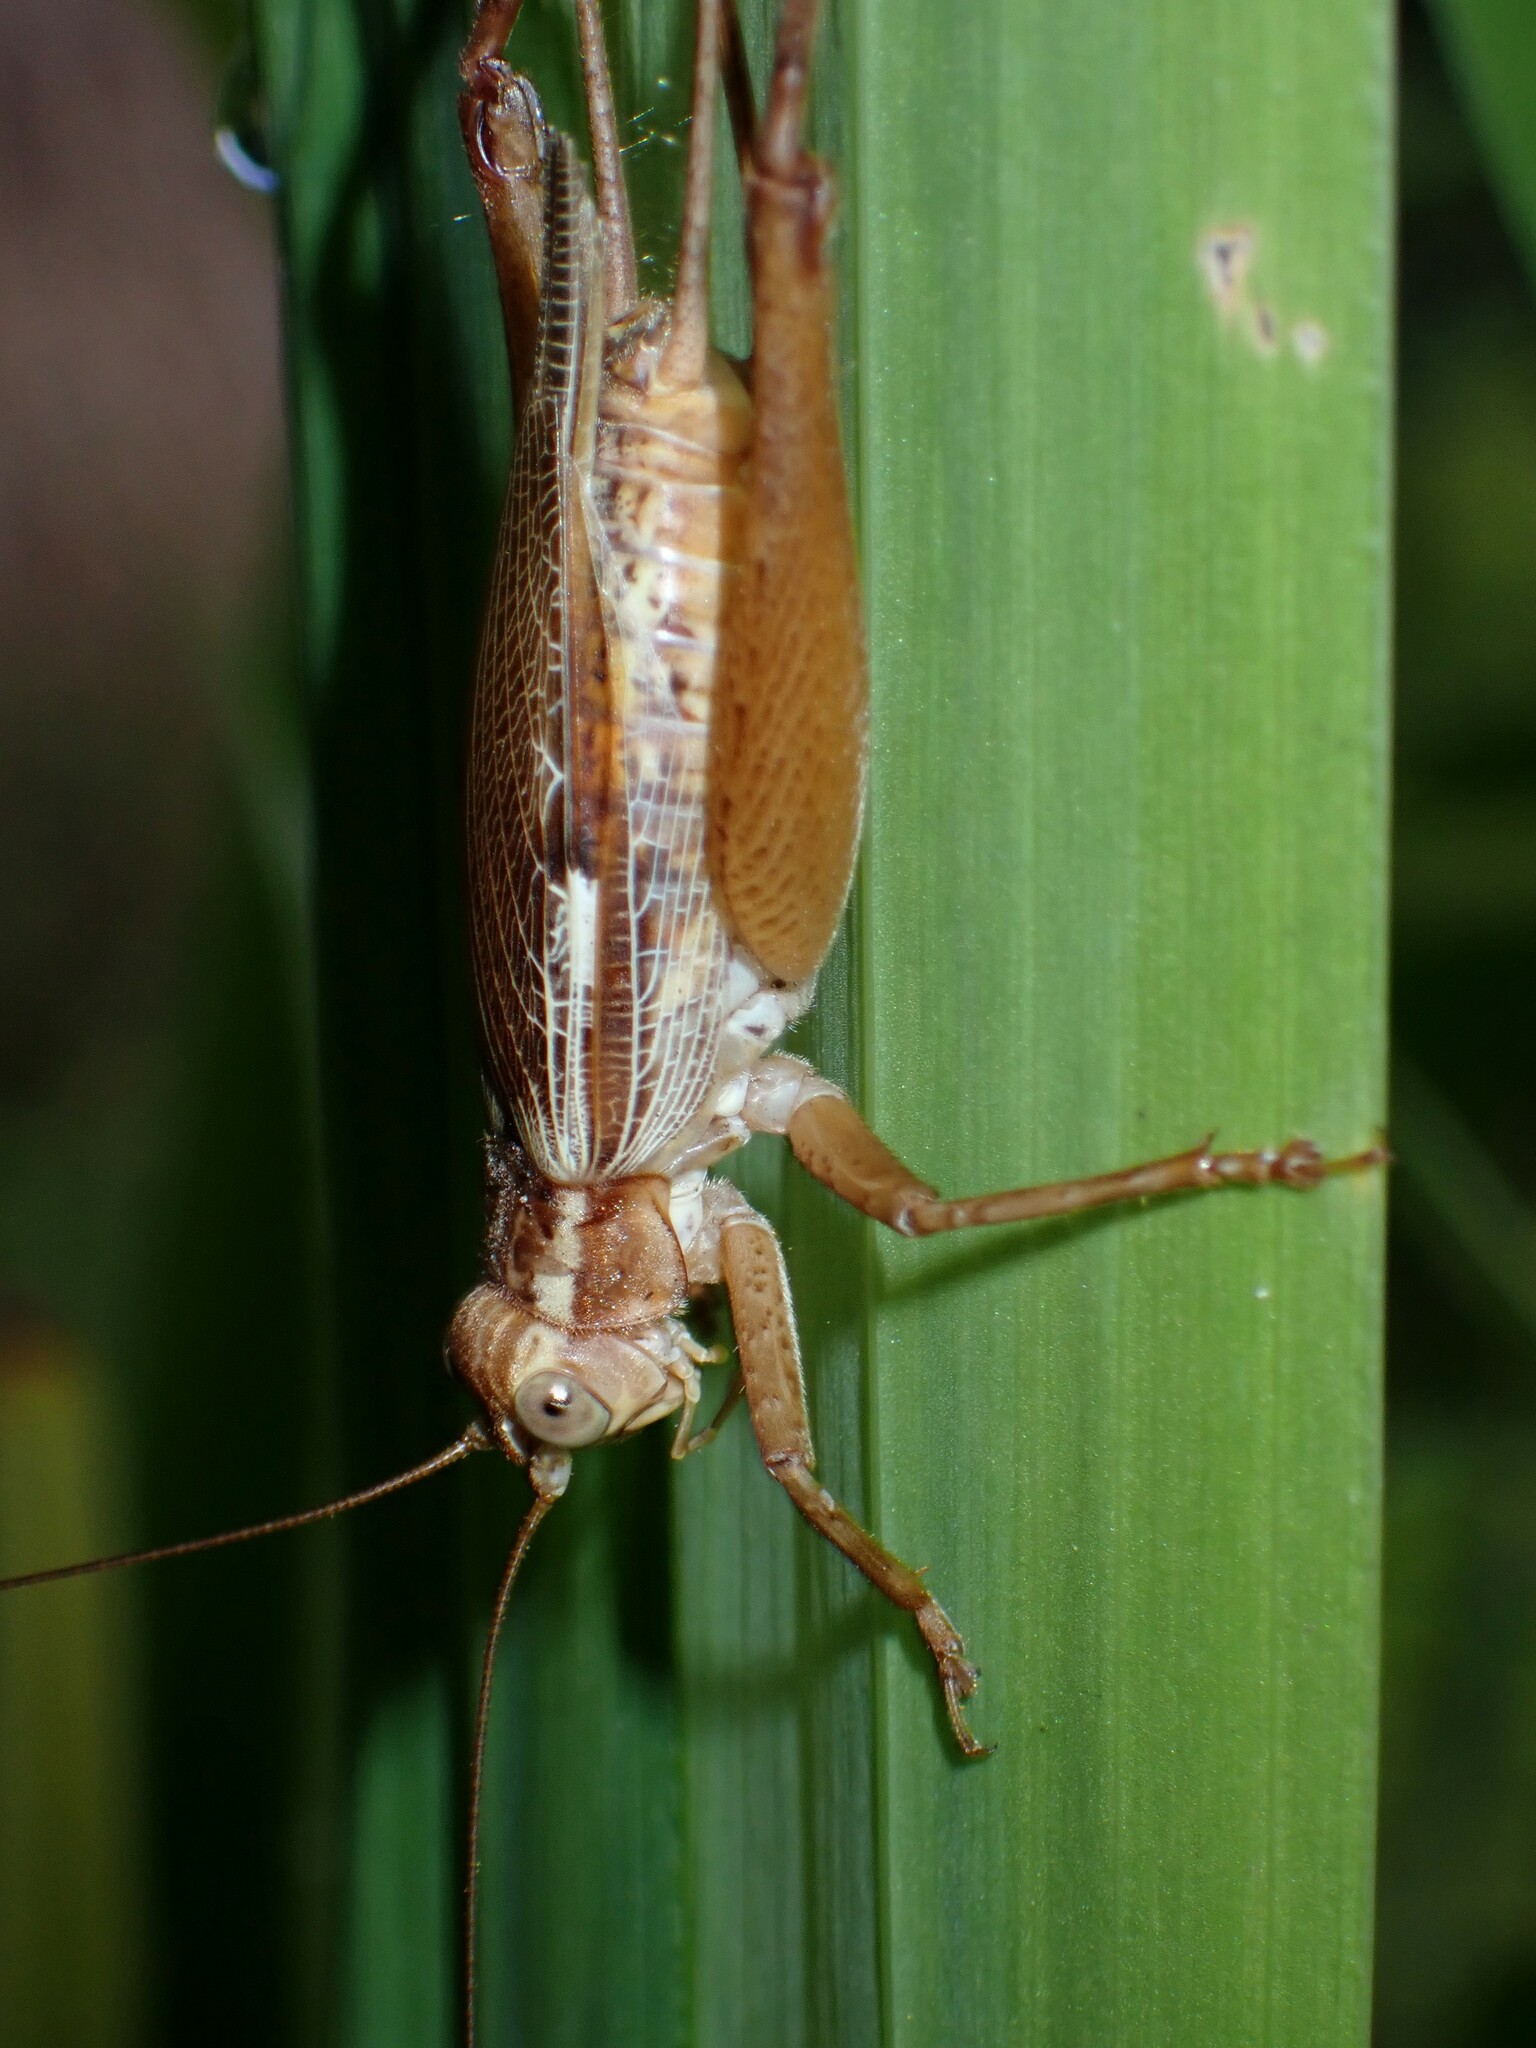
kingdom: Animalia
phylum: Arthropoda
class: Insecta
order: Orthoptera
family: Gryllidae
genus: Cardiodactylus
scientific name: Cardiodactylus novaeguineae
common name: Sad cricket
